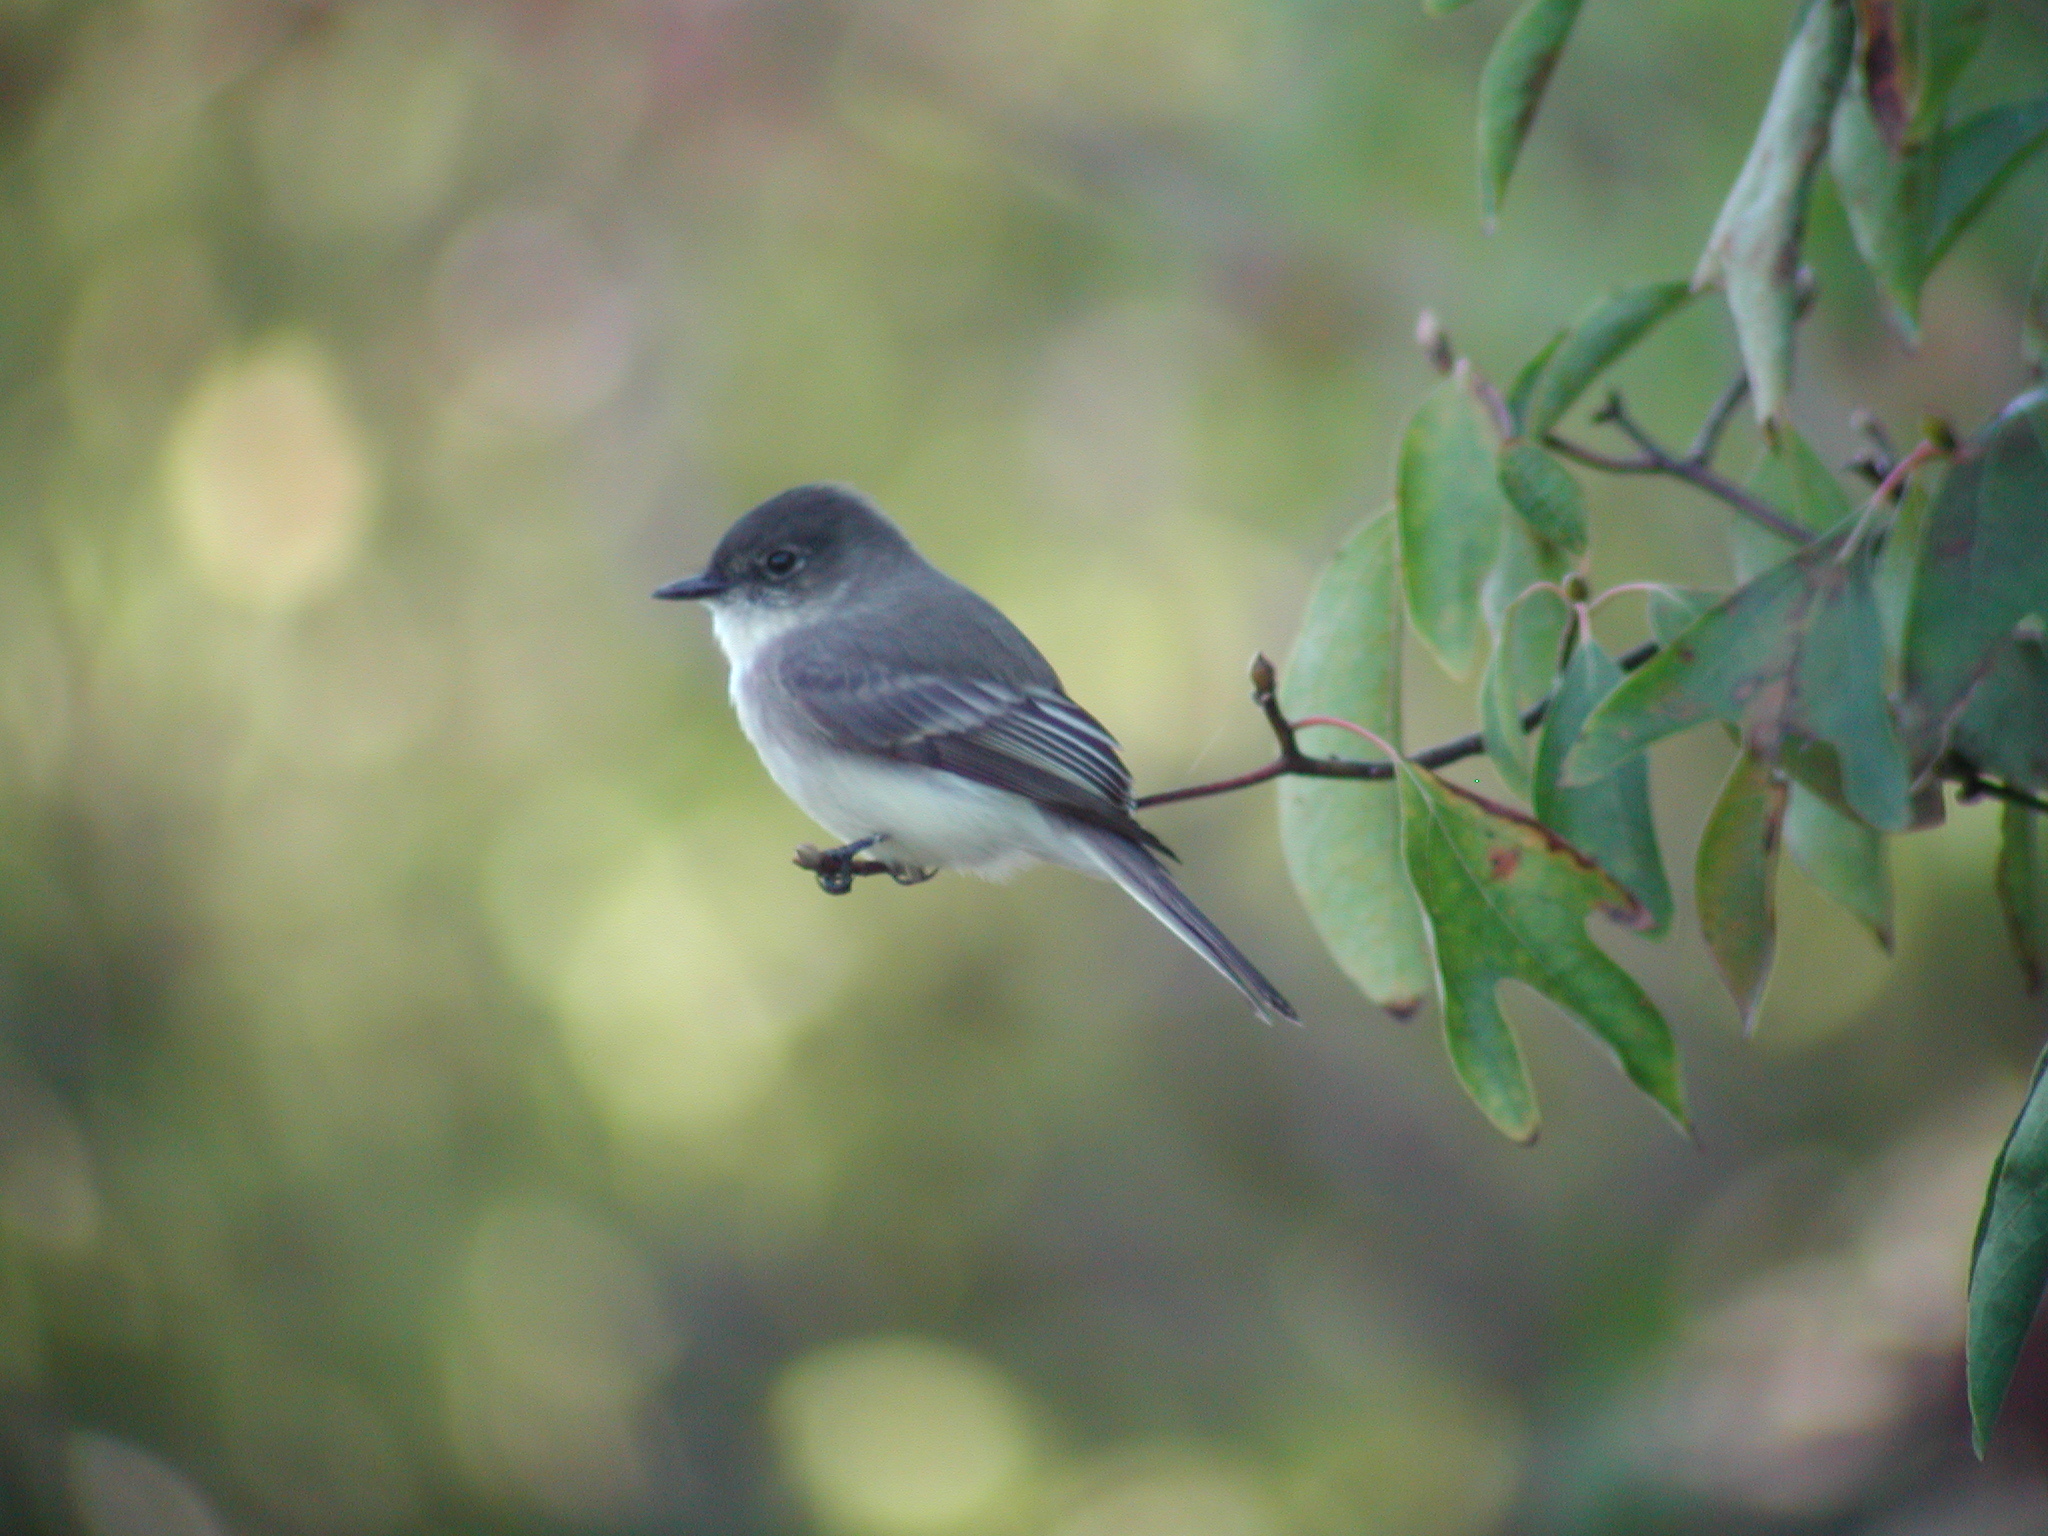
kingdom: Animalia
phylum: Chordata
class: Aves
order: Passeriformes
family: Tyrannidae
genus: Sayornis
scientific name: Sayornis phoebe
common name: Eastern phoebe
